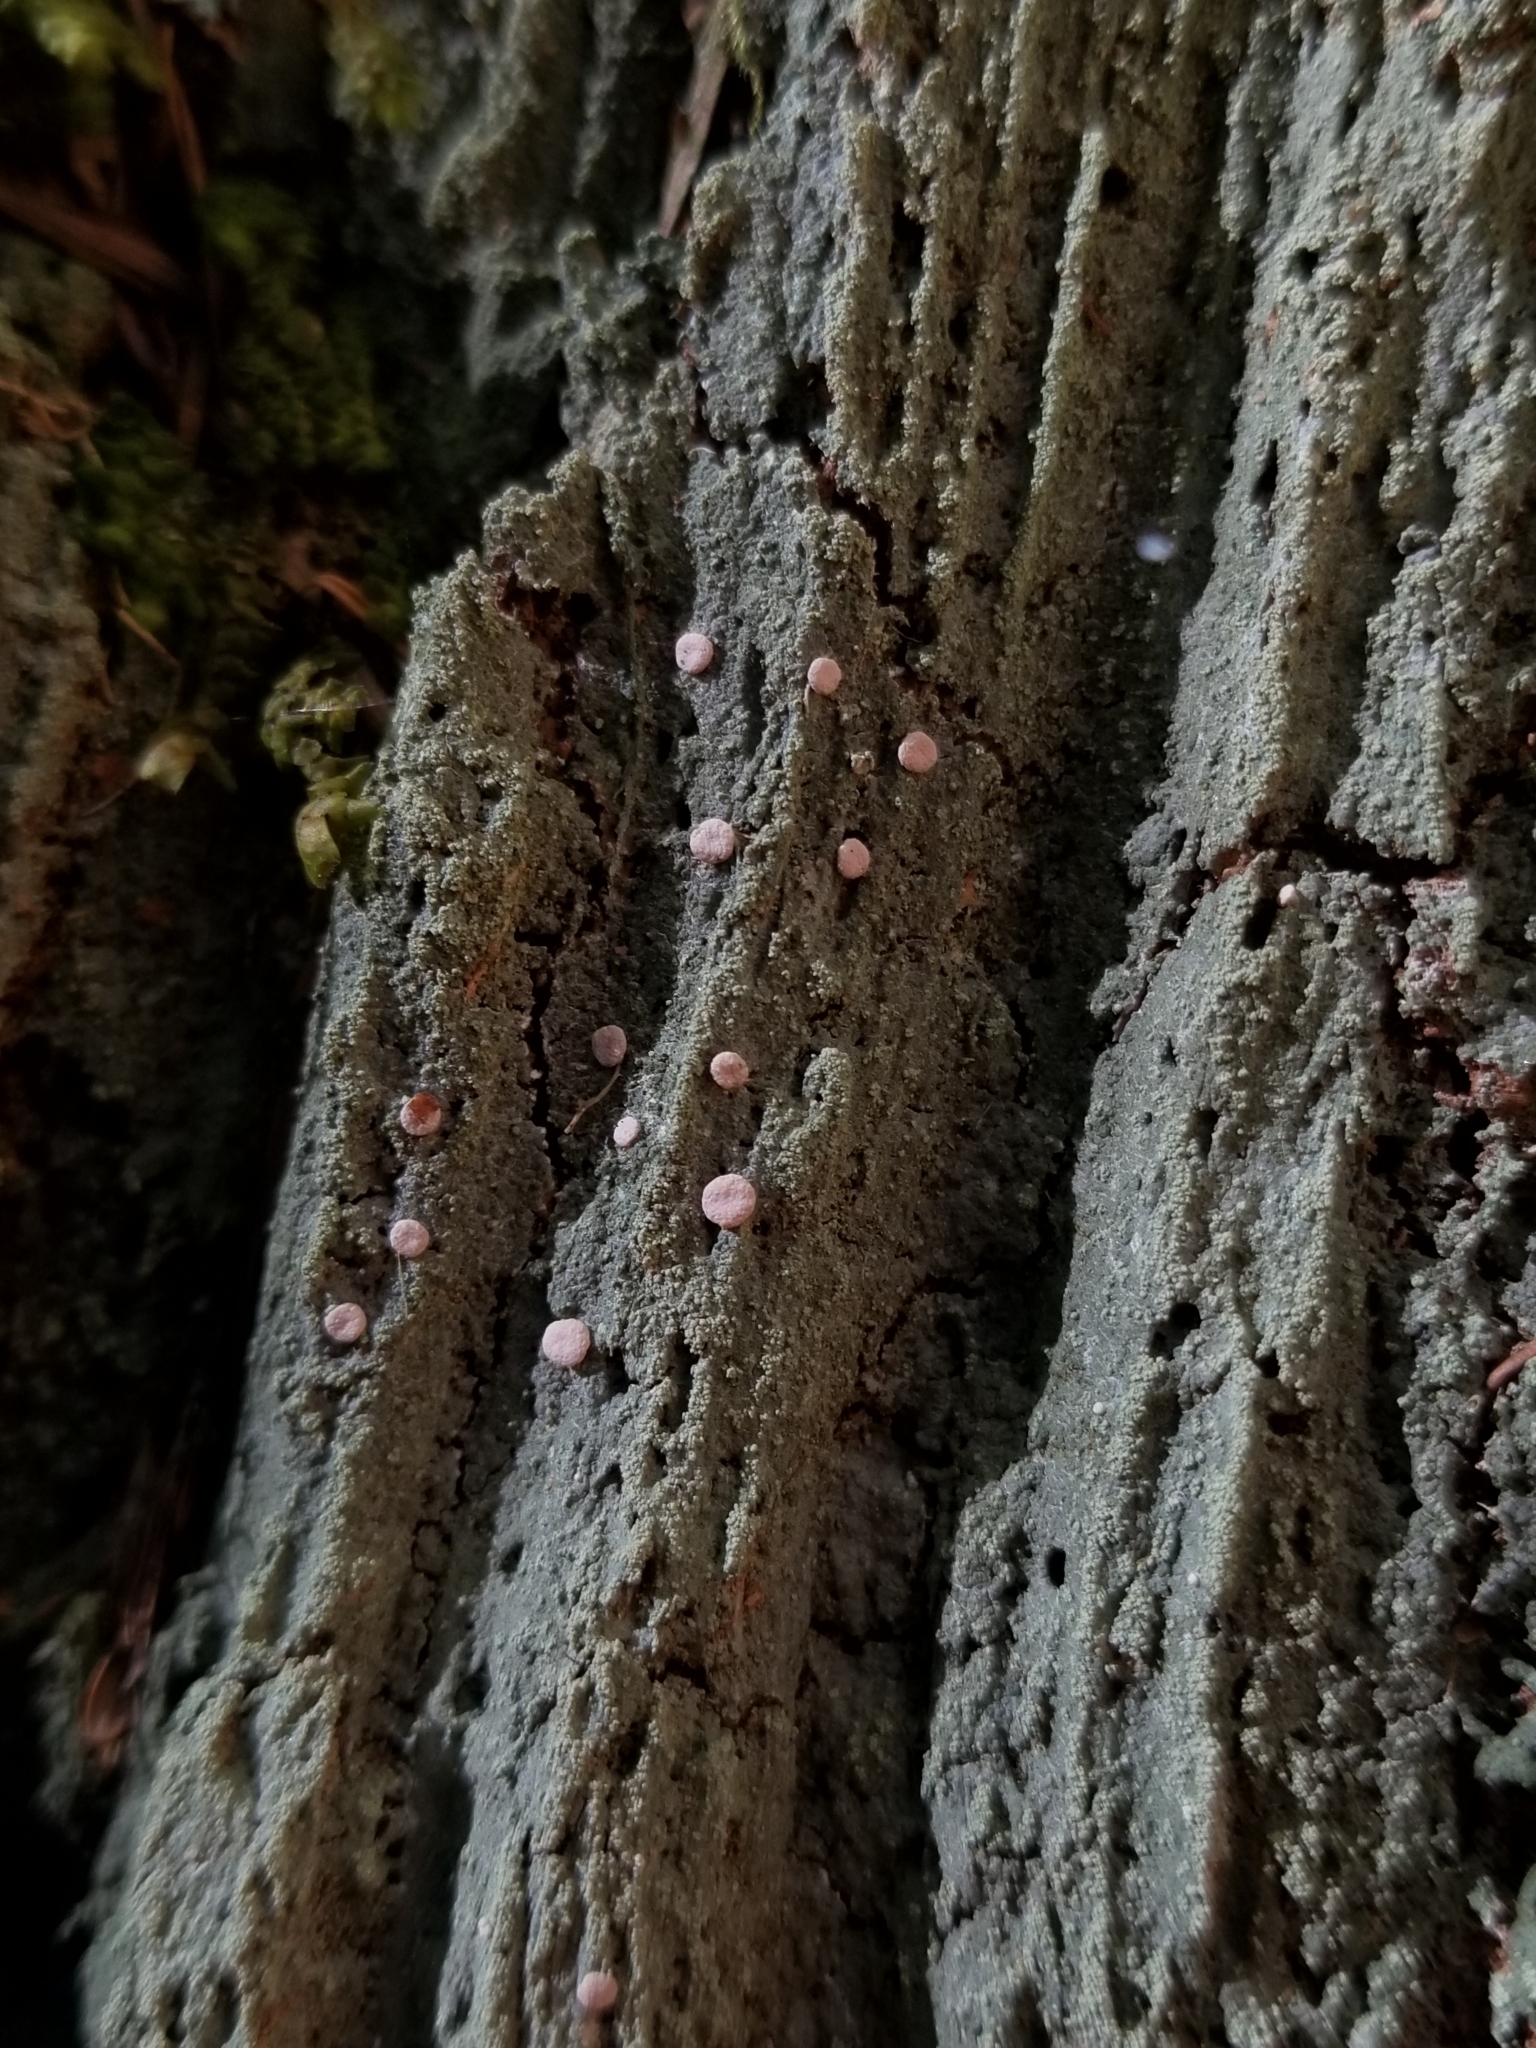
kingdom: Fungi
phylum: Ascomycota
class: Lecanoromycetes
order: Pertusariales
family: Icmadophilaceae
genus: Icmadophila
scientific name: Icmadophila ericetorum
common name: Candy lichen
